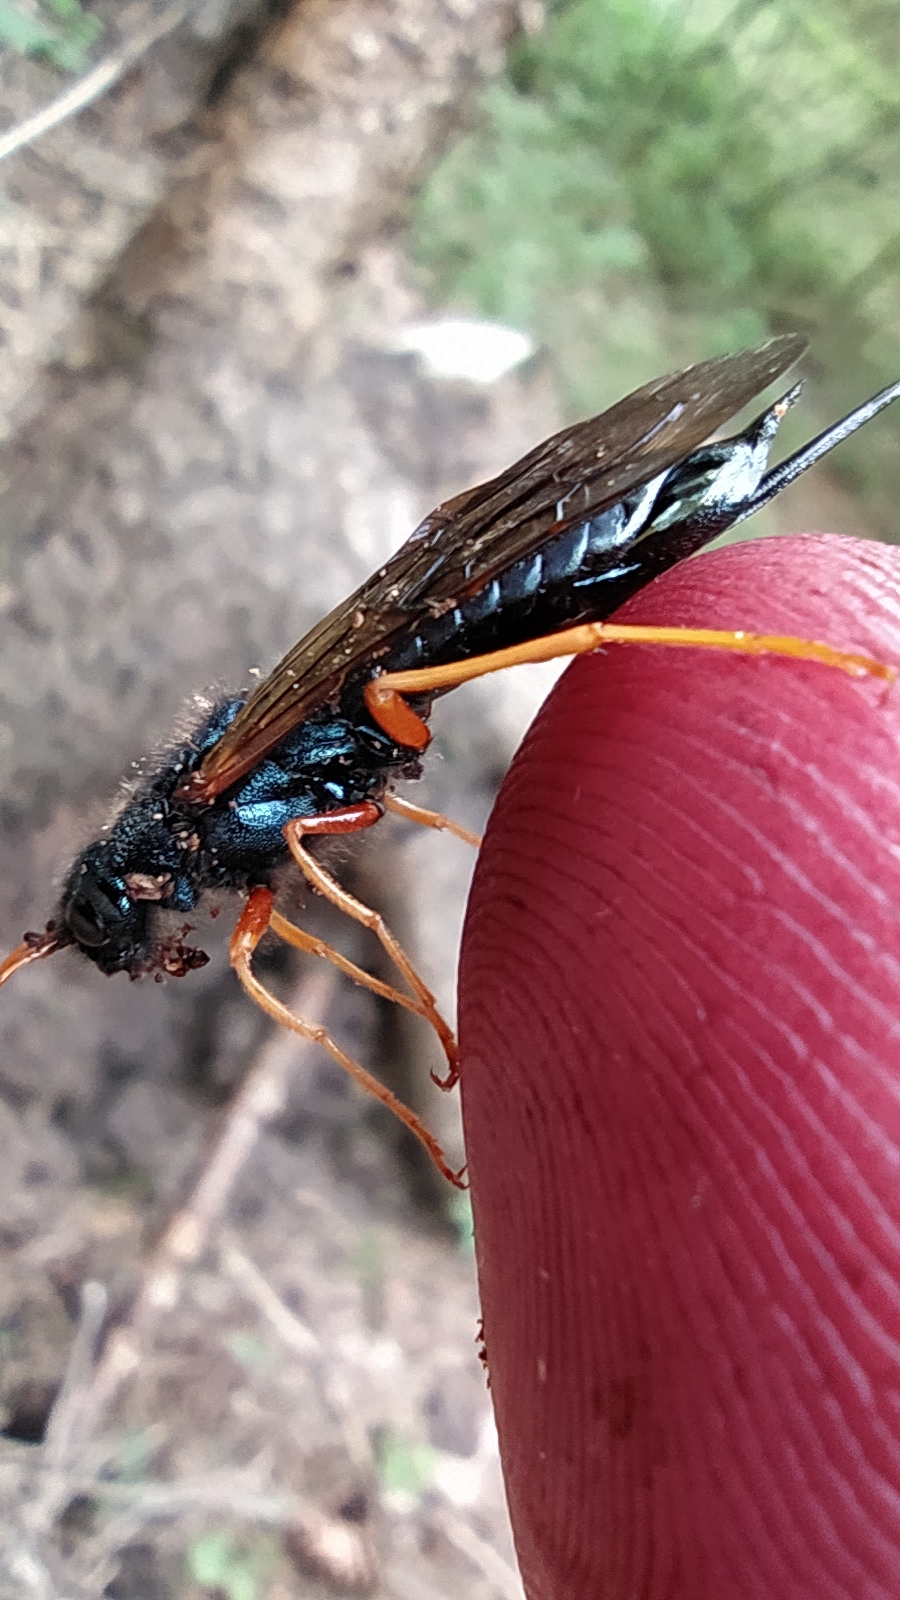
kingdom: Animalia
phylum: Arthropoda
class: Insecta
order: Hymenoptera
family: Siricidae
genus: Sirex
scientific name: Sirex juvencus
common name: Blue horntail
